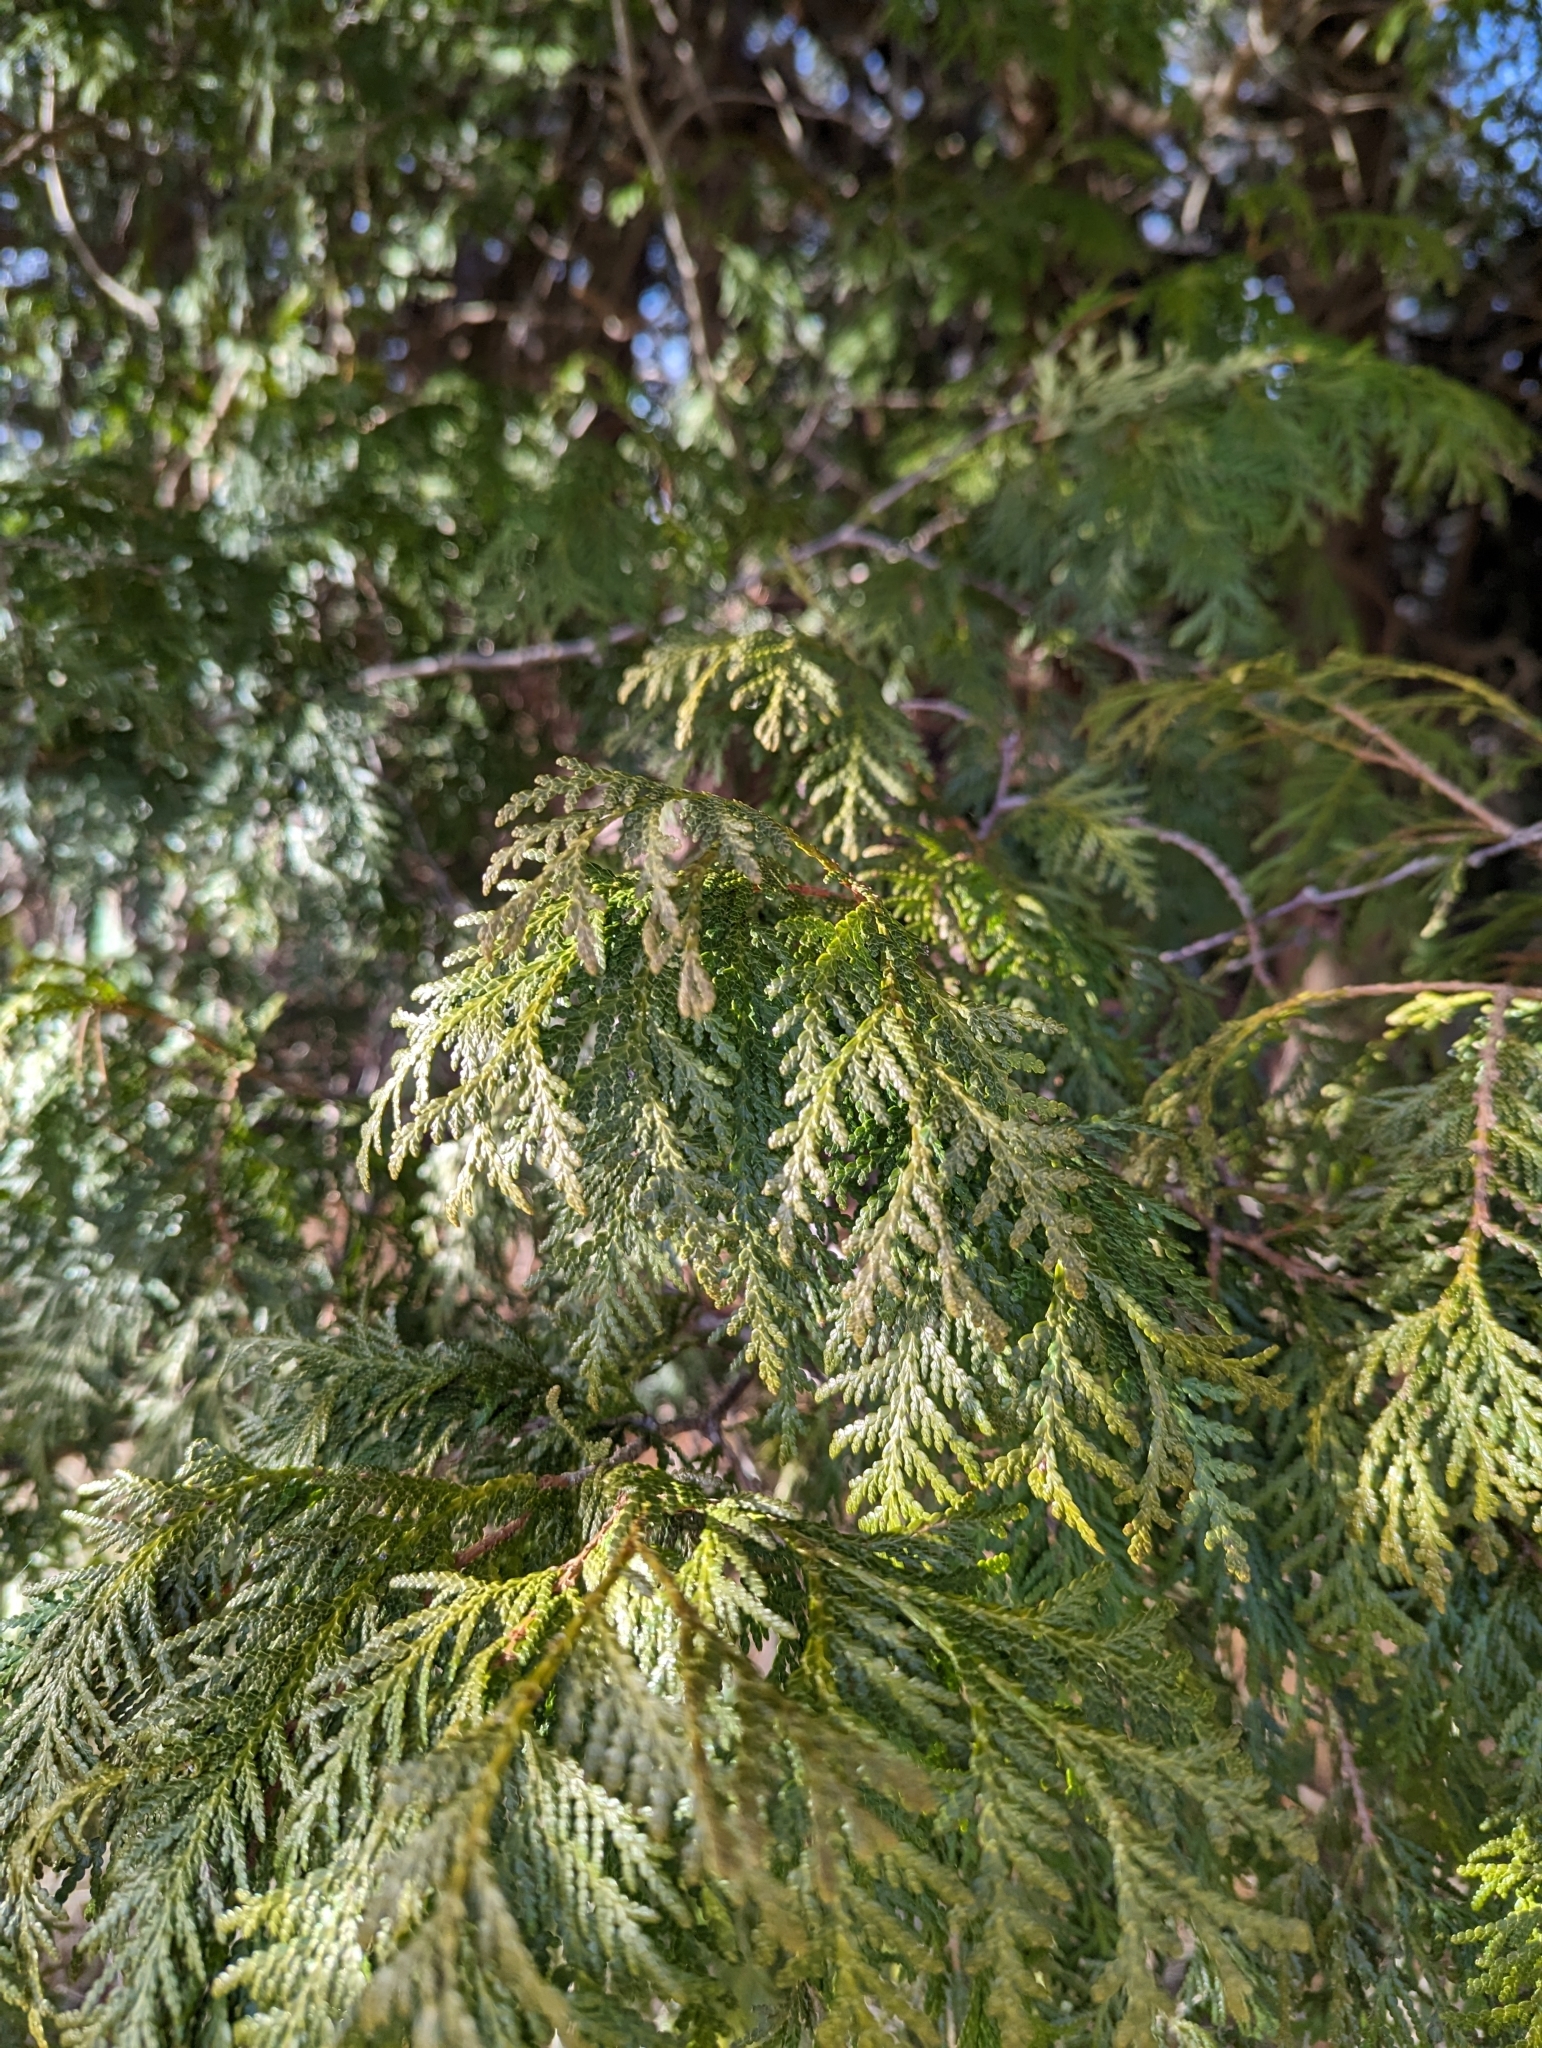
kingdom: Plantae
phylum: Tracheophyta
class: Pinopsida
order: Pinales
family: Cupressaceae
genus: Thuja
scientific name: Thuja occidentalis
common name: Northern white-cedar
